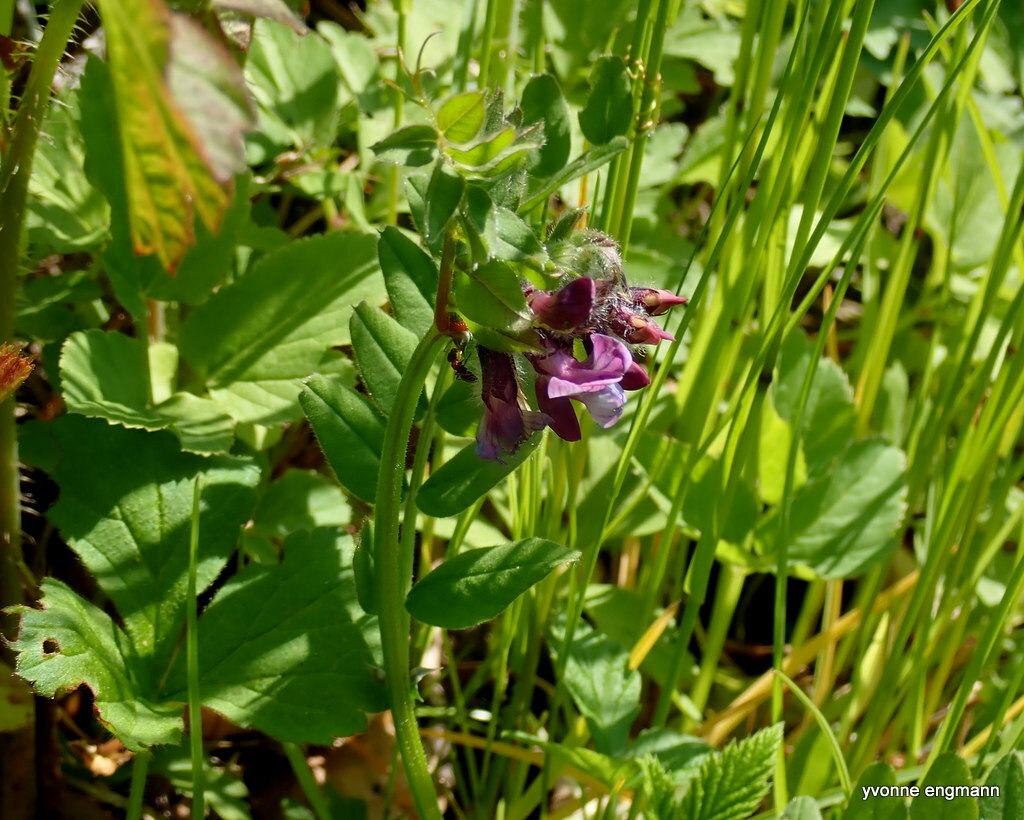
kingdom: Plantae
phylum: Tracheophyta
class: Magnoliopsida
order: Fabales
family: Fabaceae
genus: Vicia
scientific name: Vicia sepium
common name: Bush vetch
